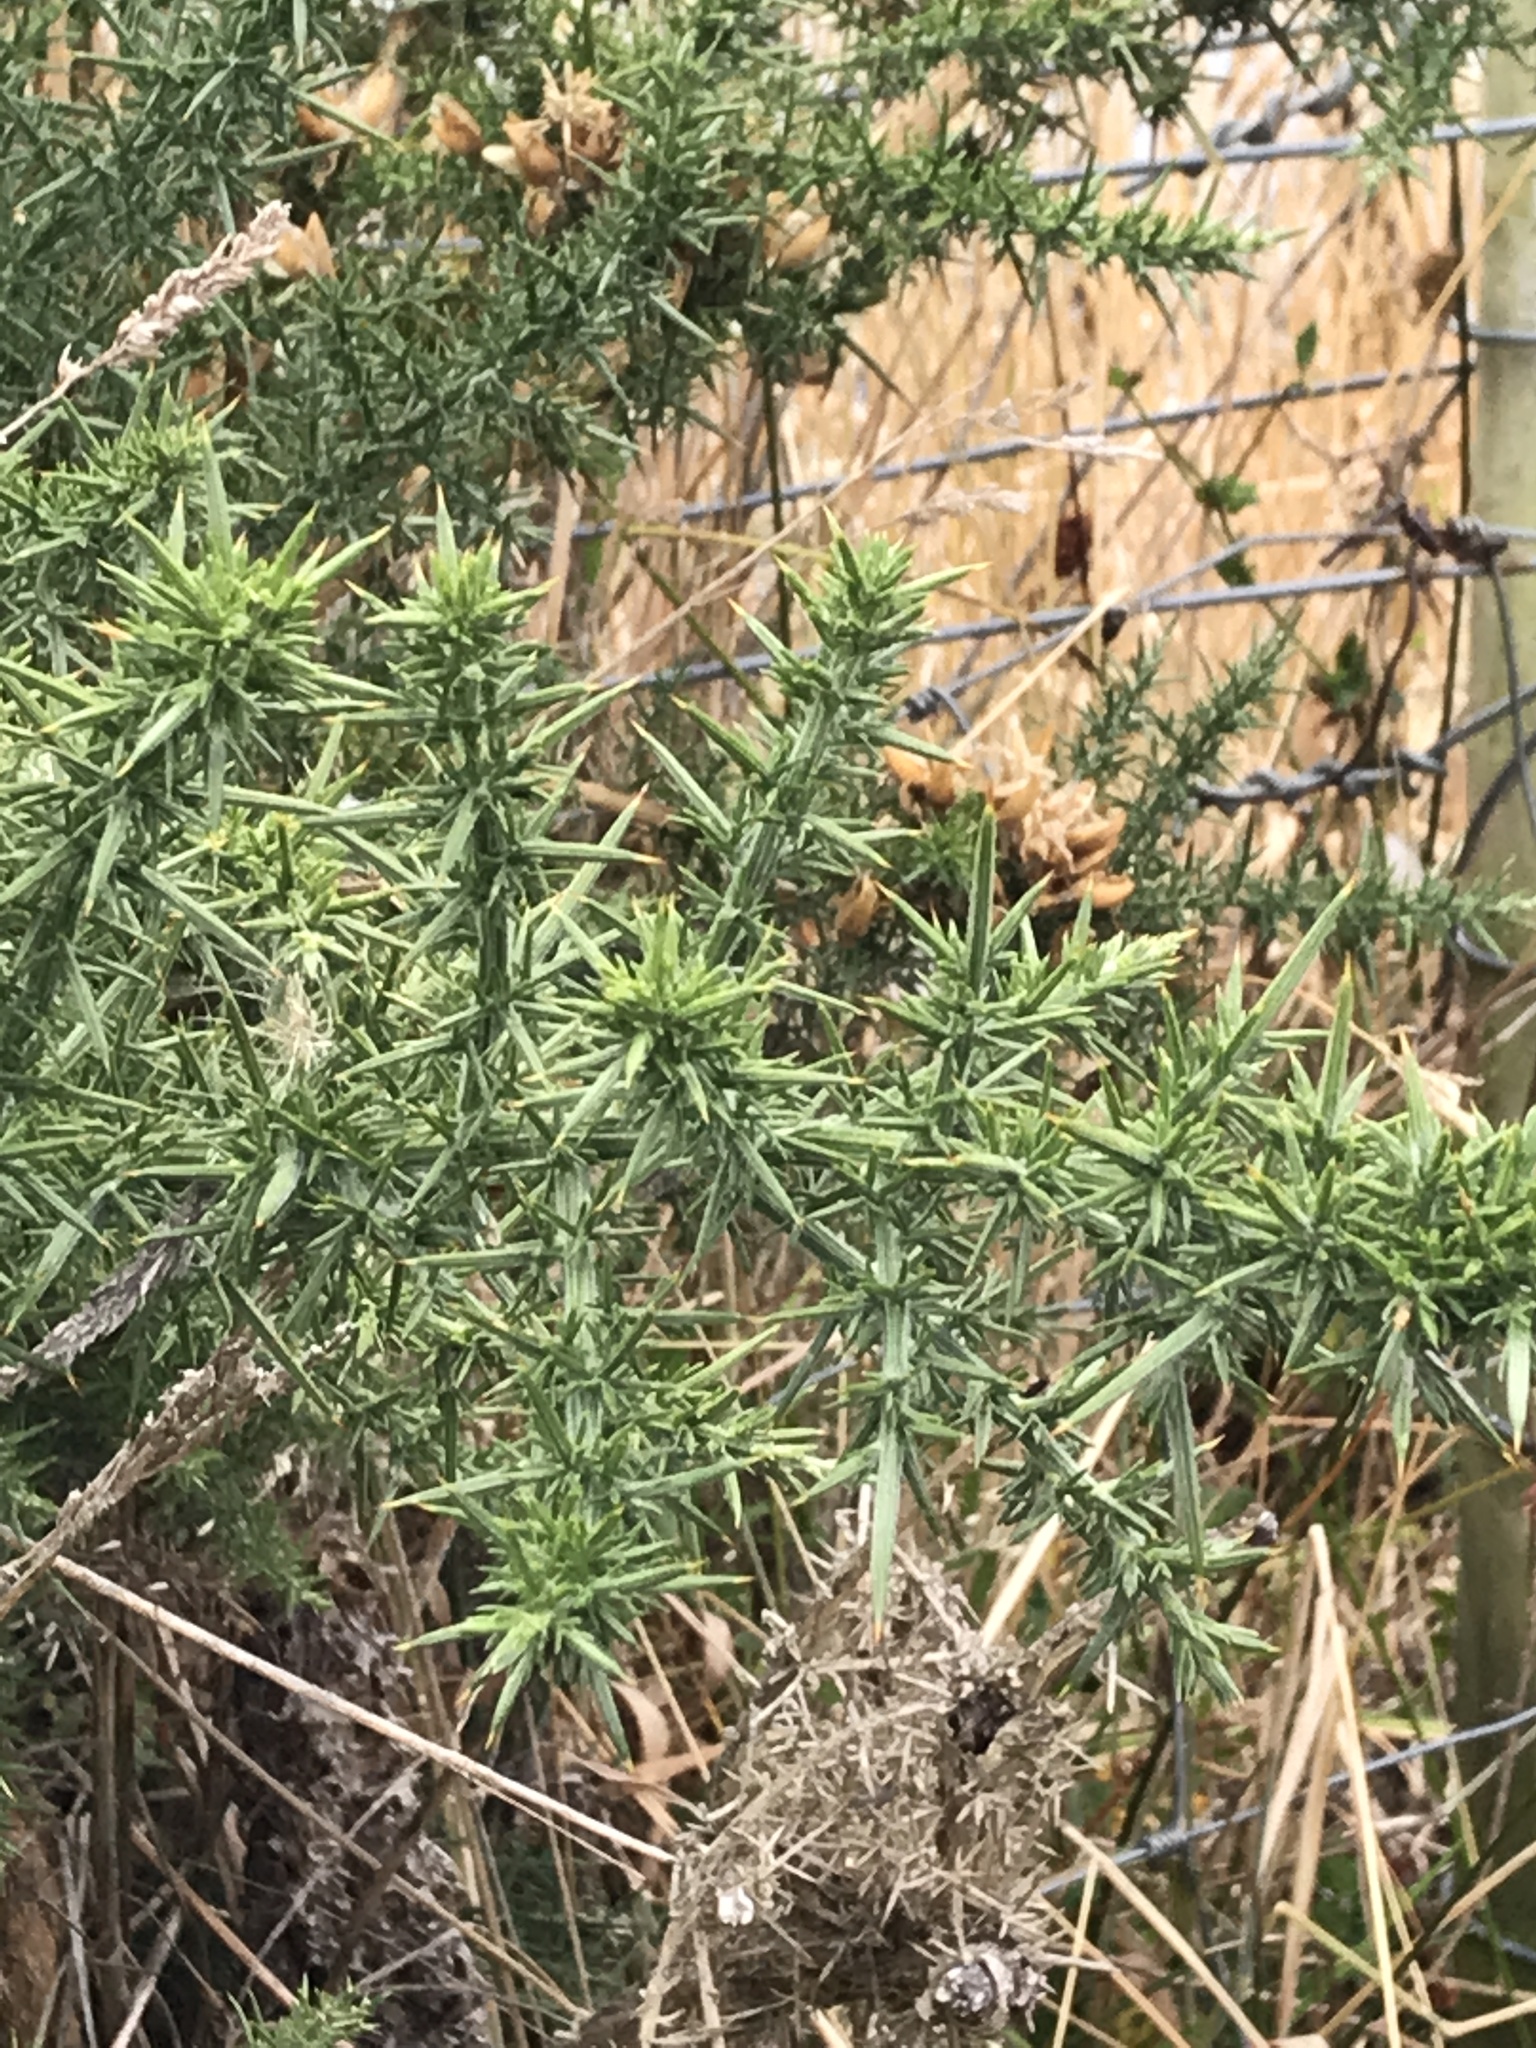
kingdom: Plantae
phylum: Tracheophyta
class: Magnoliopsida
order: Fabales
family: Fabaceae
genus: Ulex
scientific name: Ulex europaeus
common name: Common gorse
